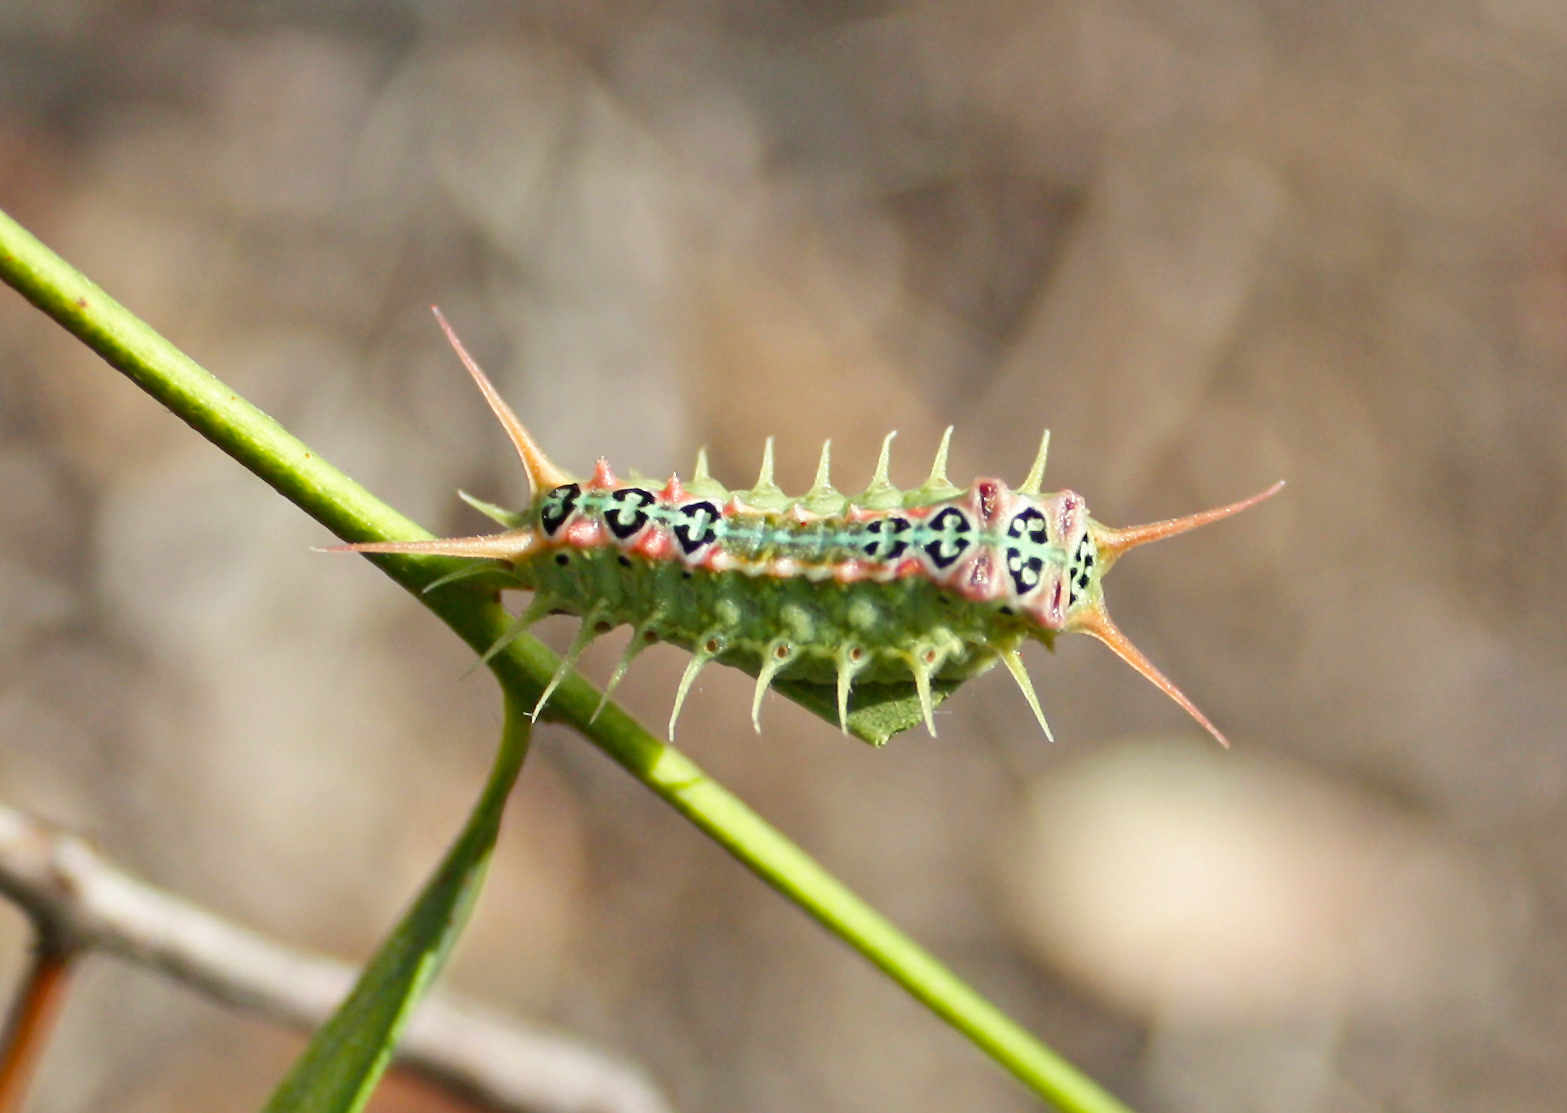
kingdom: Animalia
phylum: Arthropoda
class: Insecta
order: Lepidoptera
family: Limacodidae
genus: Doratifera
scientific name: Doratifera quadriguttata
